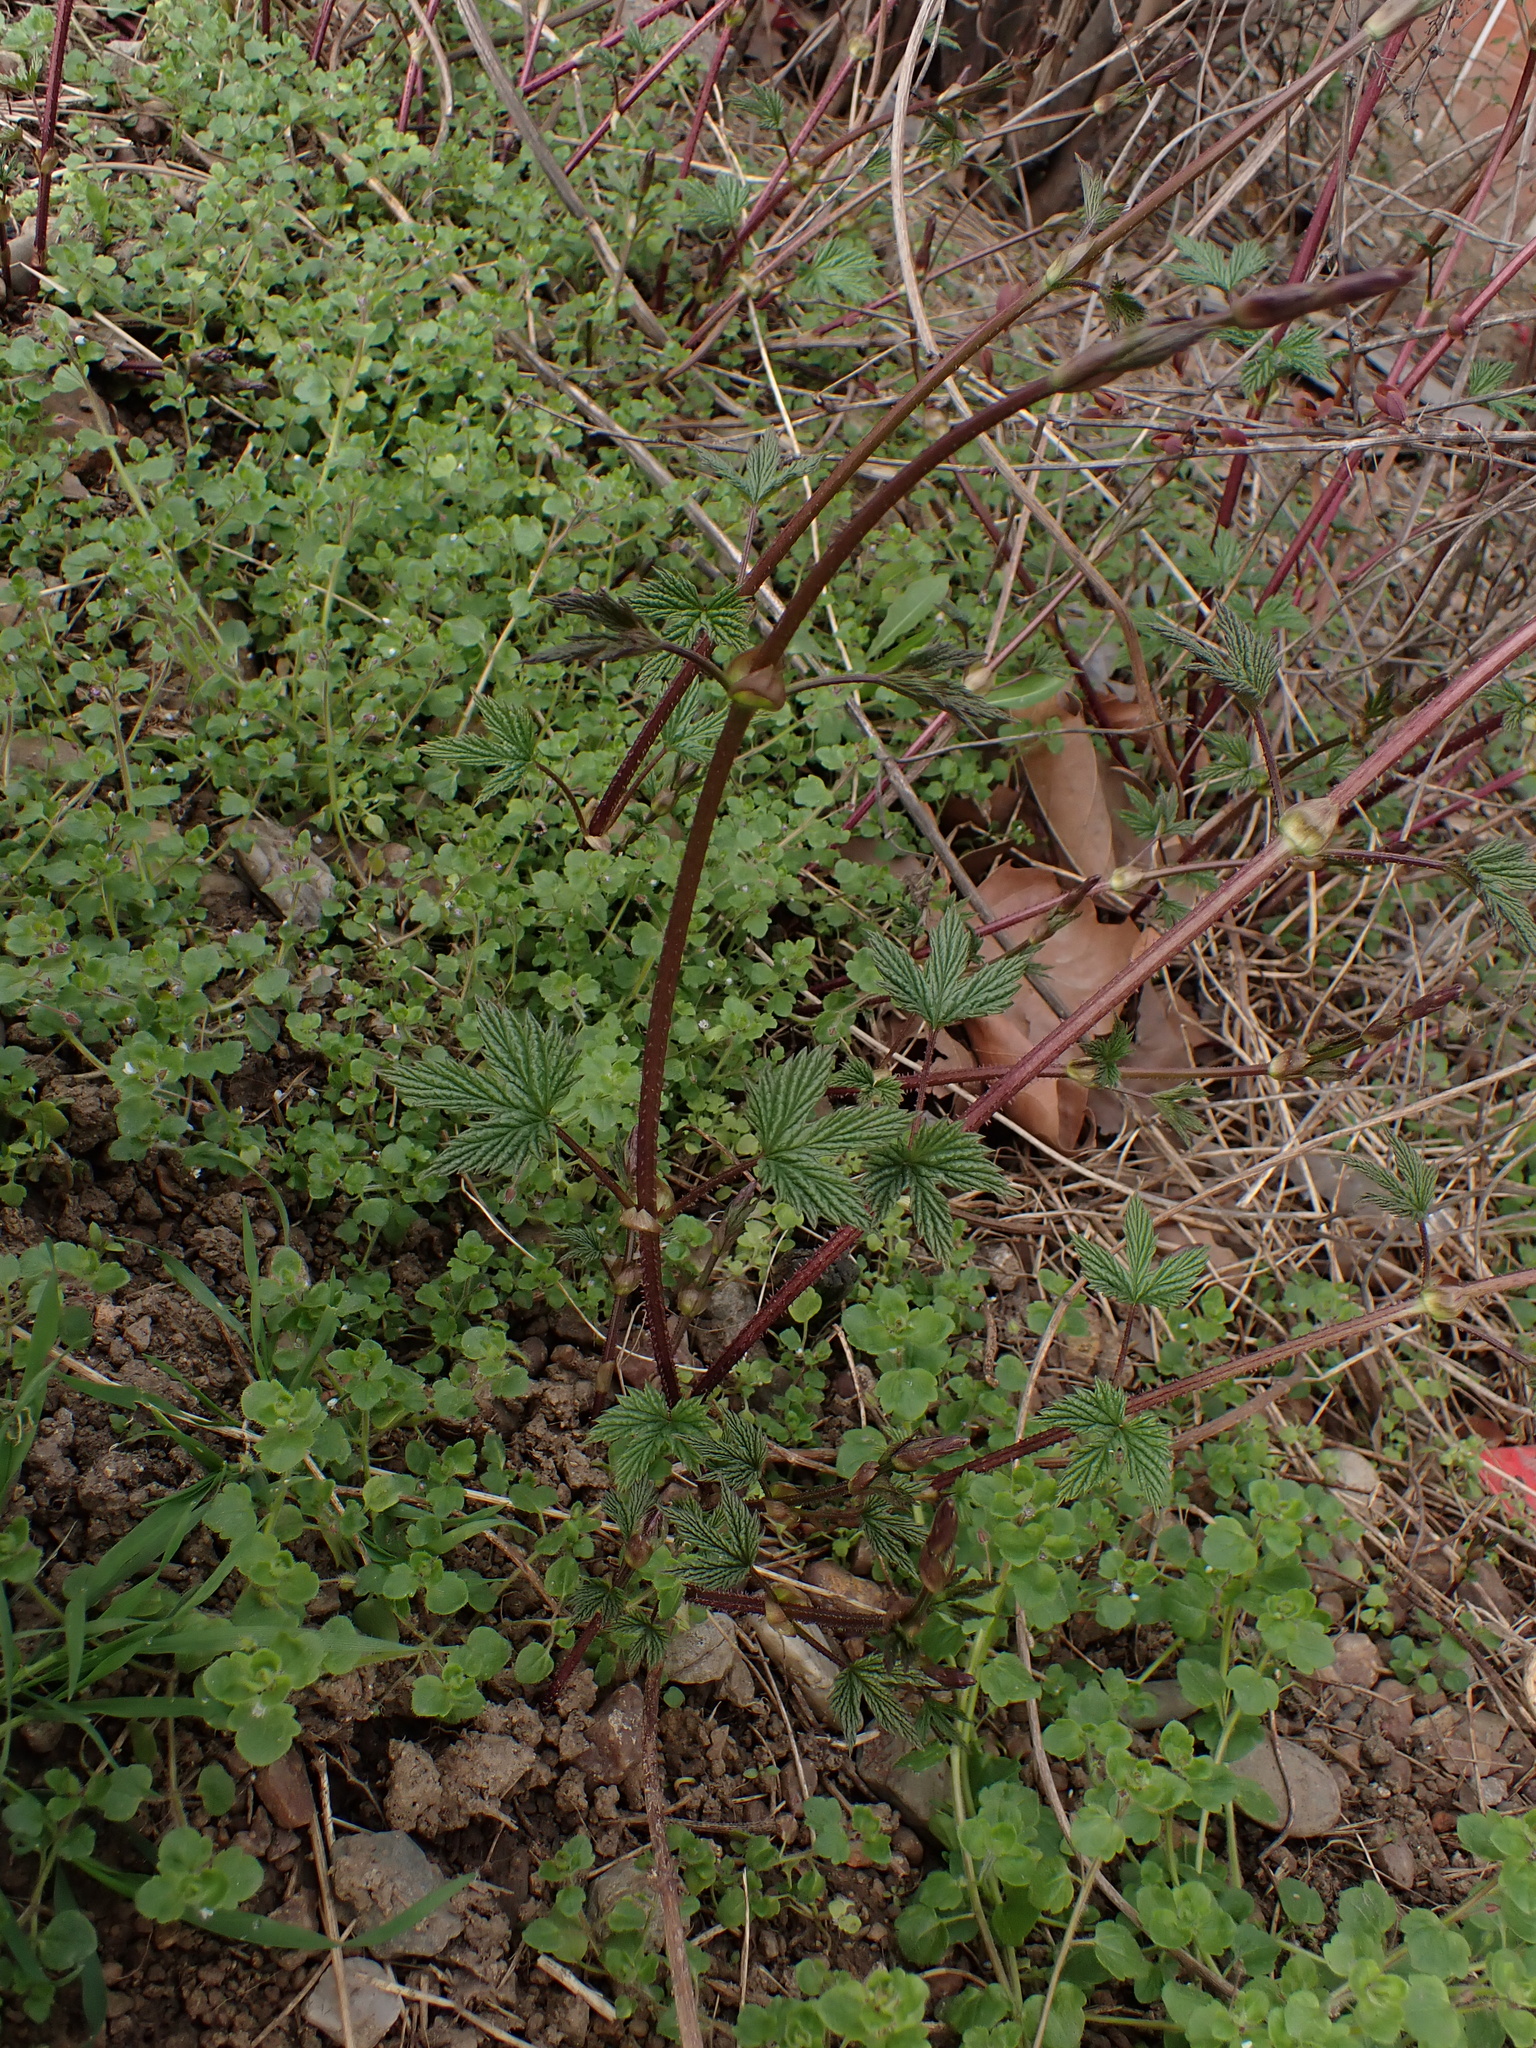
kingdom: Plantae
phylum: Tracheophyta
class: Magnoliopsida
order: Rosales
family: Cannabaceae
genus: Humulus
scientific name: Humulus lupulus
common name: Hop
